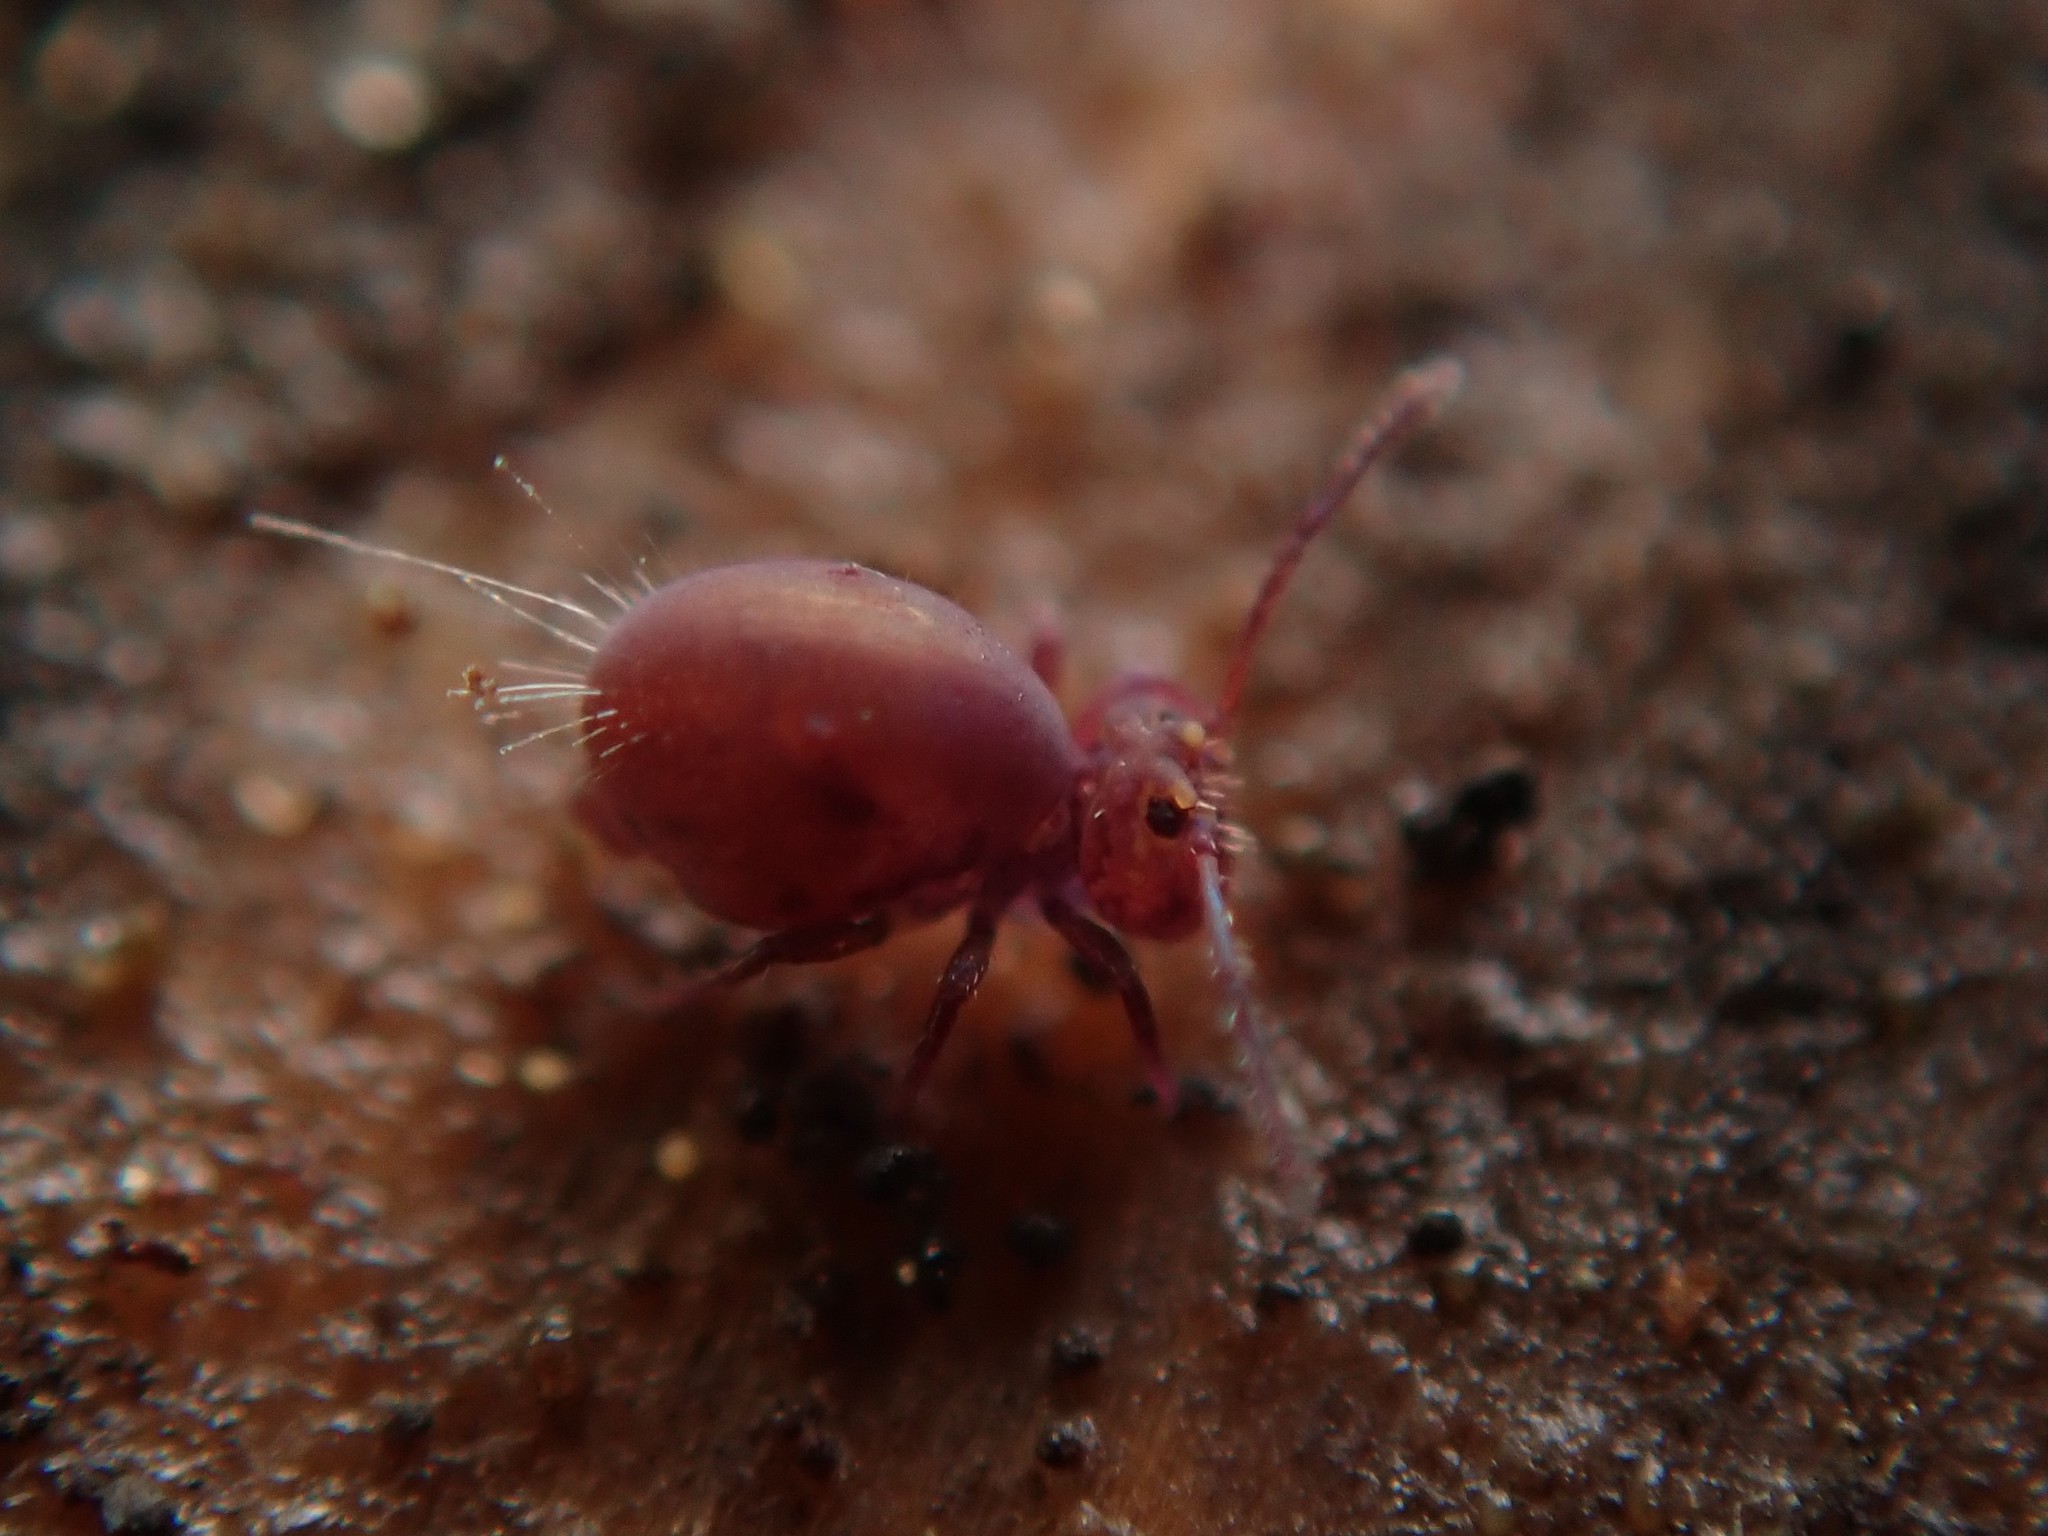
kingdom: Animalia
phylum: Arthropoda
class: Collembola
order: Symphypleona
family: Dicyrtomidae
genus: Dicyrtoma
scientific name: Dicyrtoma fusca
